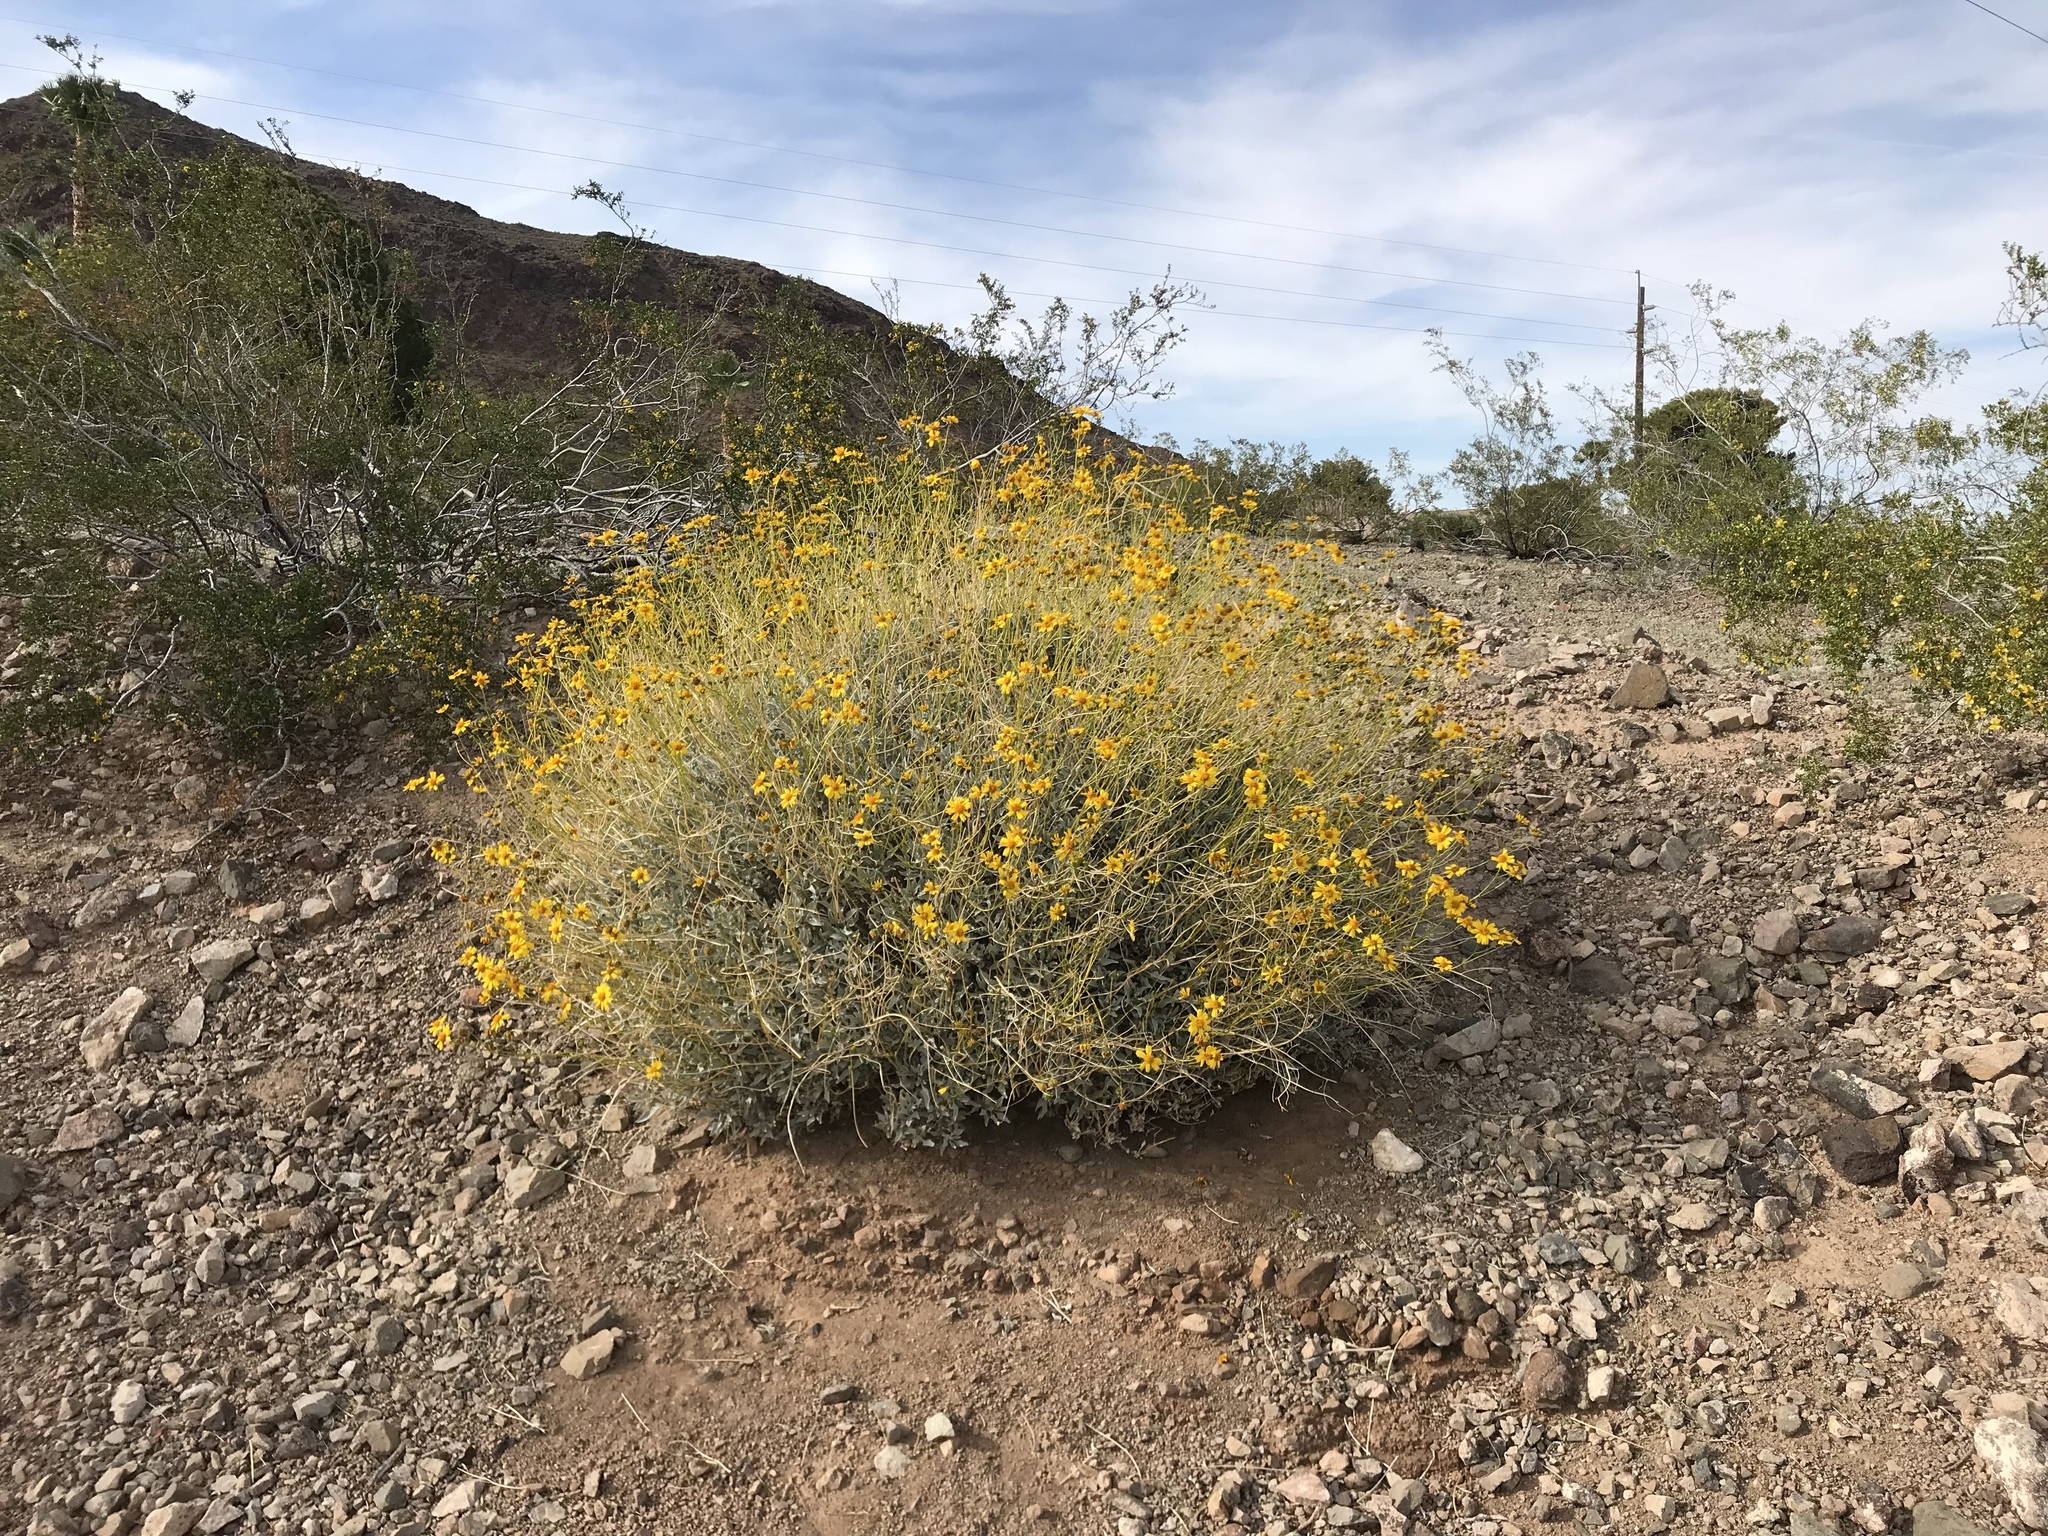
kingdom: Plantae
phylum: Tracheophyta
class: Magnoliopsida
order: Asterales
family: Asteraceae
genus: Encelia
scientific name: Encelia farinosa
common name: Brittlebush
